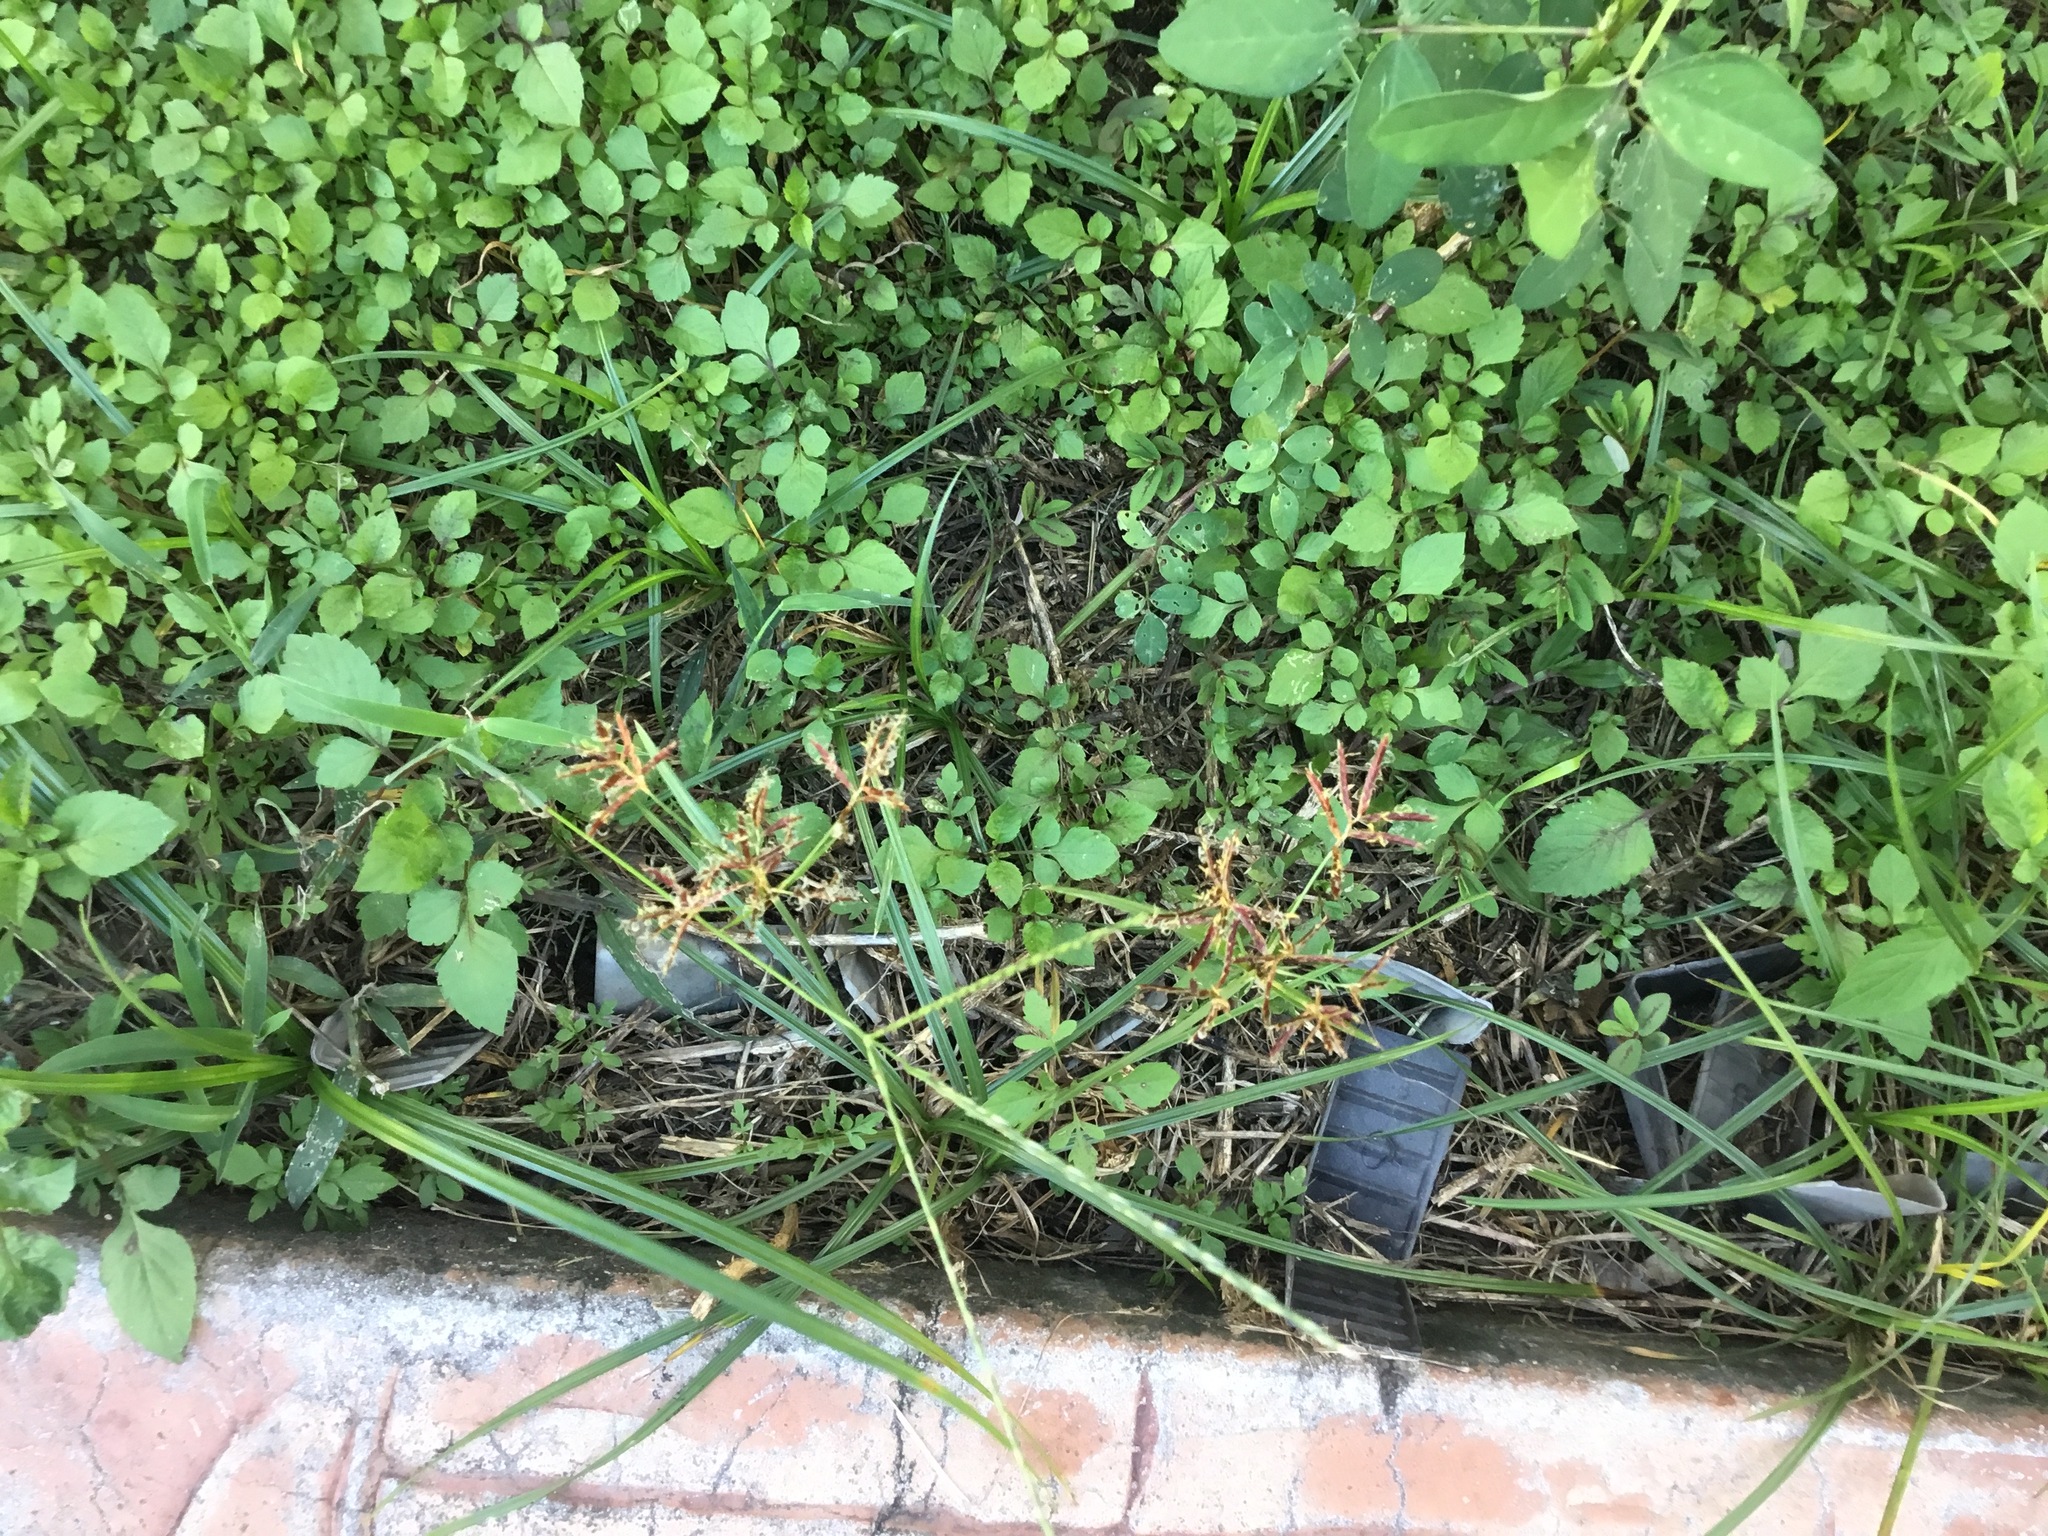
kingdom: Plantae
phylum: Tracheophyta
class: Liliopsida
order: Poales
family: Cyperaceae
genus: Cyperus
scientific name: Cyperus rotundus
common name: Nutgrass
